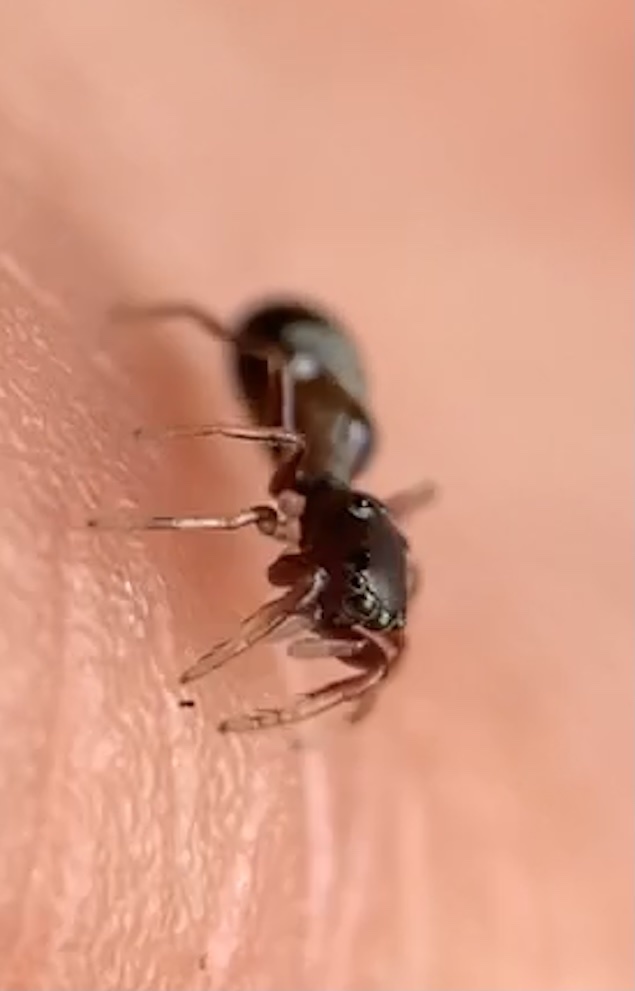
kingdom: Animalia
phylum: Arthropoda
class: Arachnida
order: Araneae
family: Salticidae
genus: Synageles
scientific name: Synageles
